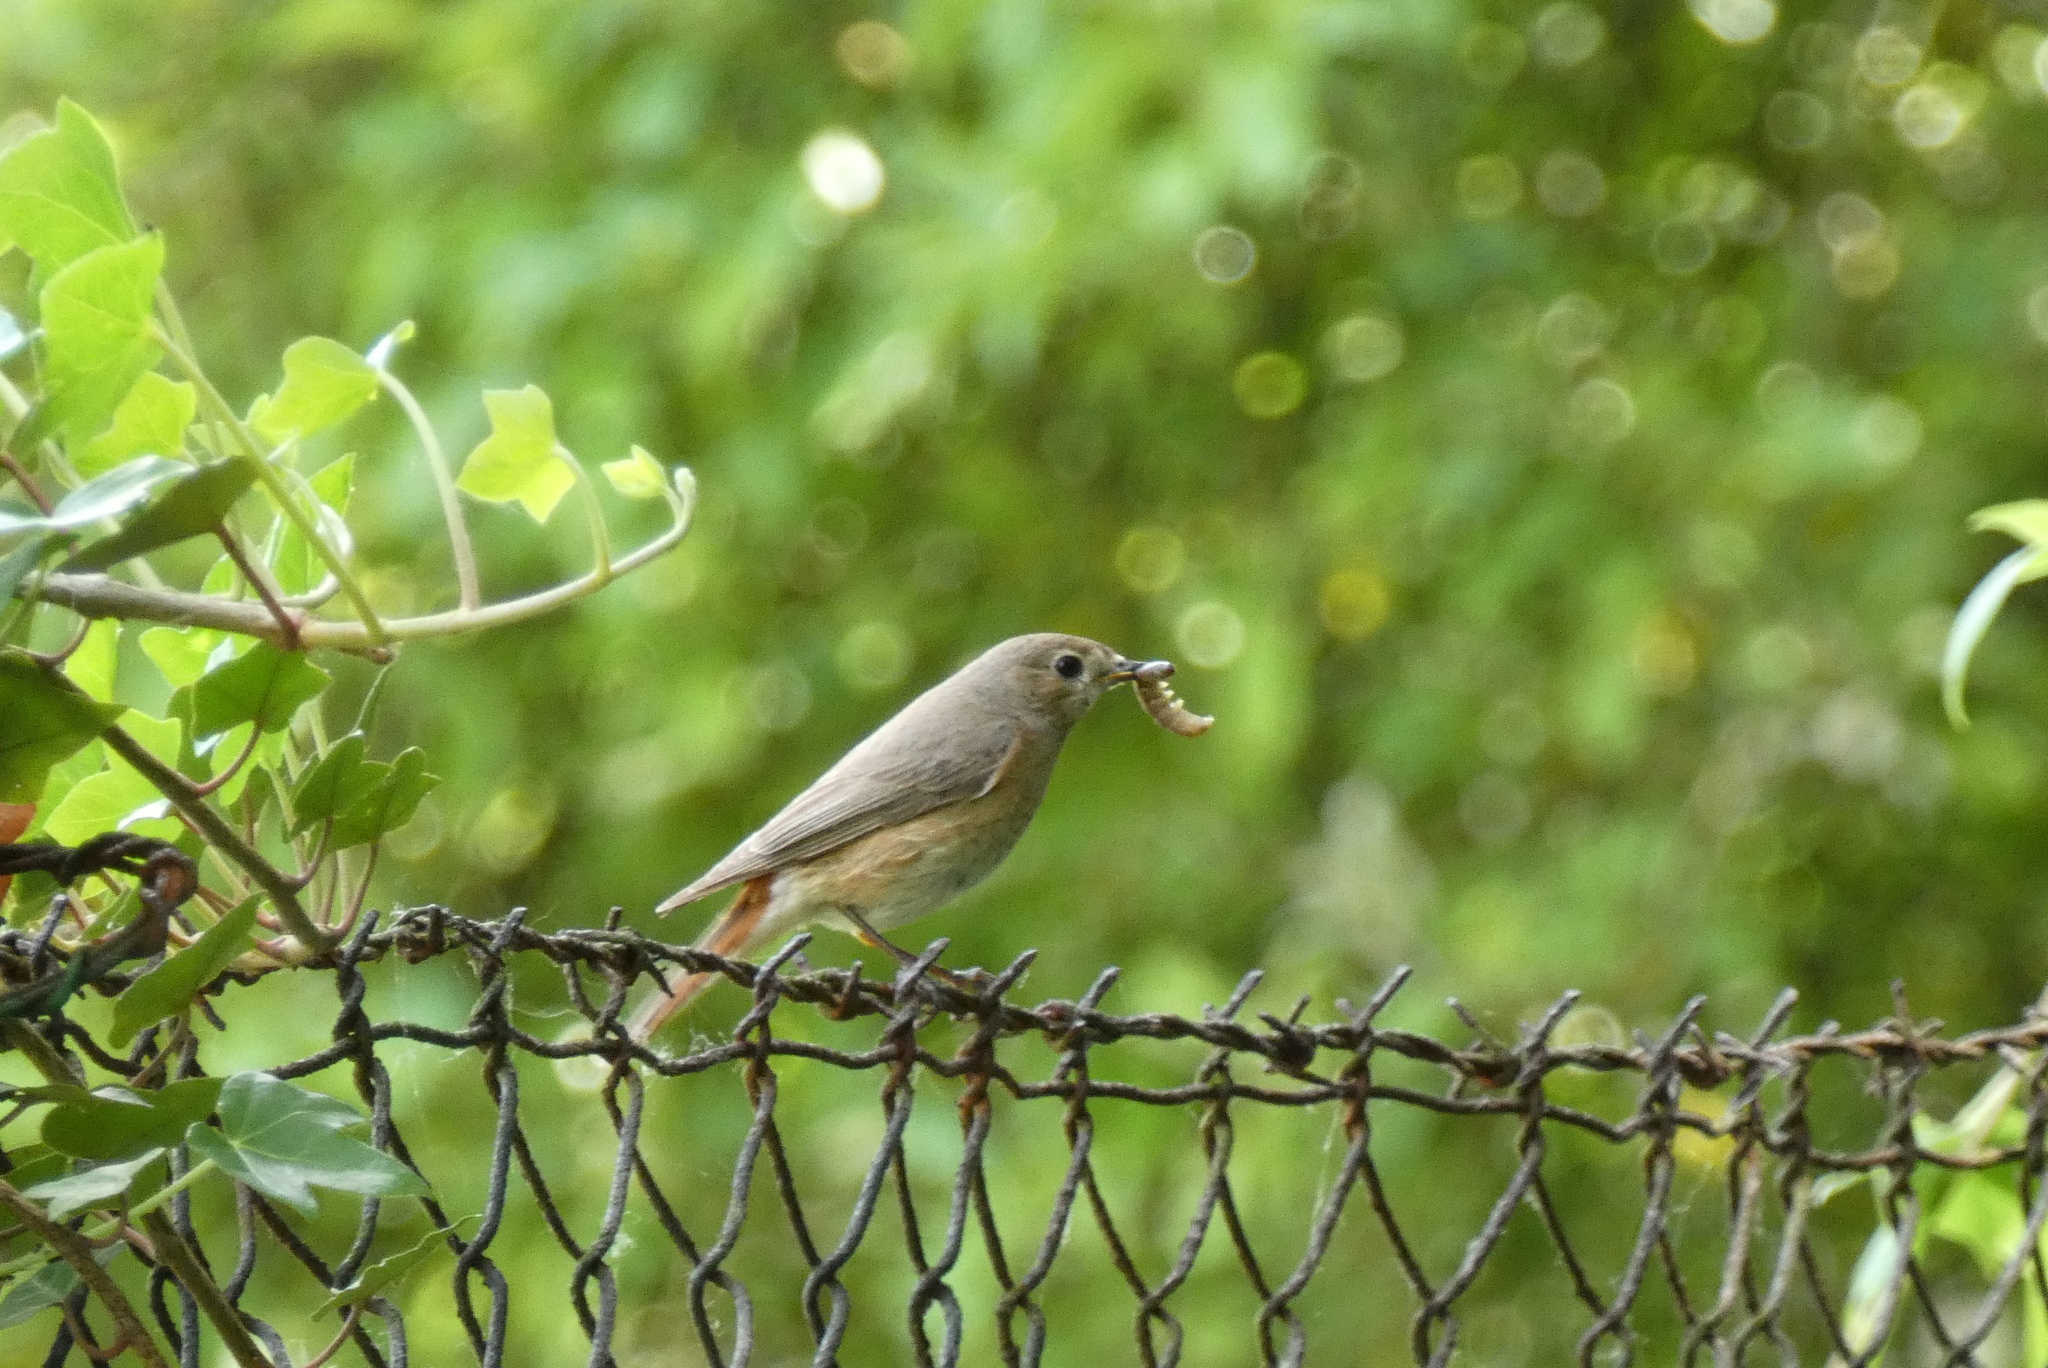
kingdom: Animalia
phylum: Chordata
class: Aves
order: Passeriformes
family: Muscicapidae
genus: Phoenicurus
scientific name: Phoenicurus phoenicurus
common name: Common redstart
